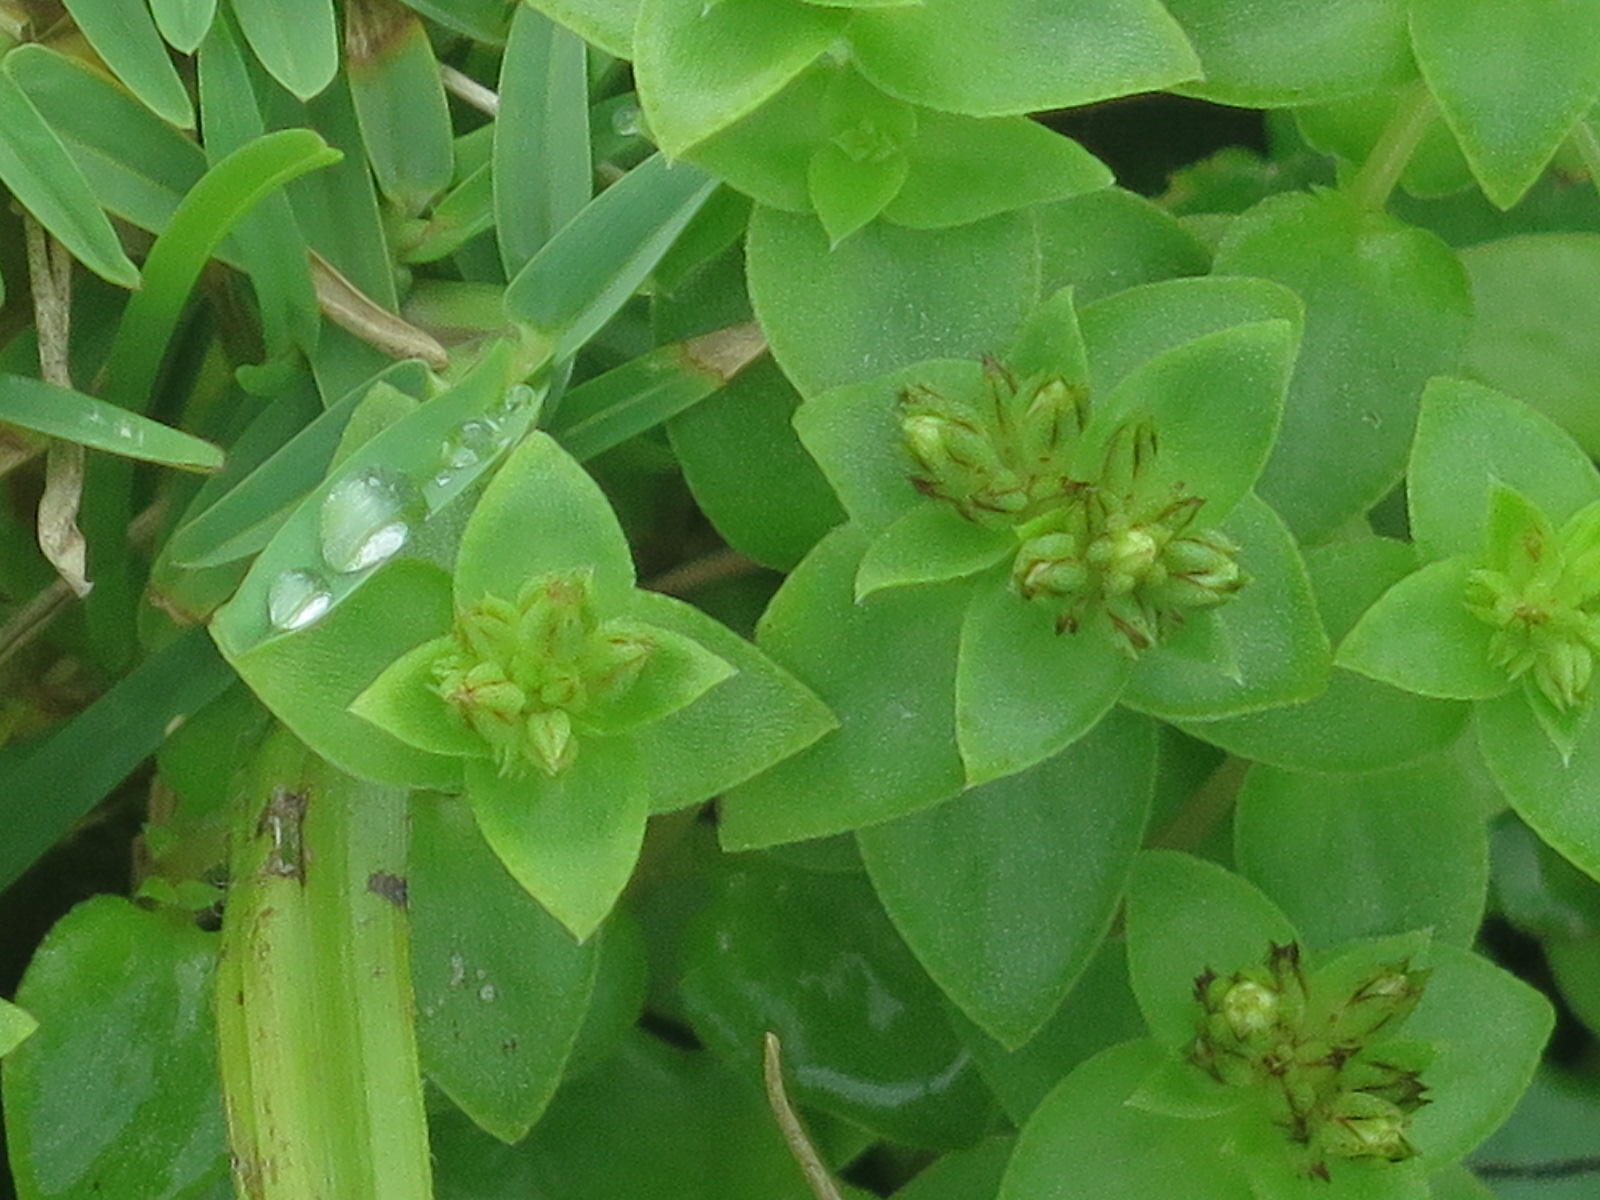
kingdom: Plantae
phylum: Tracheophyta
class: Magnoliopsida
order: Saxifragales
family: Crassulaceae
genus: Crassula
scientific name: Crassula pellucida
